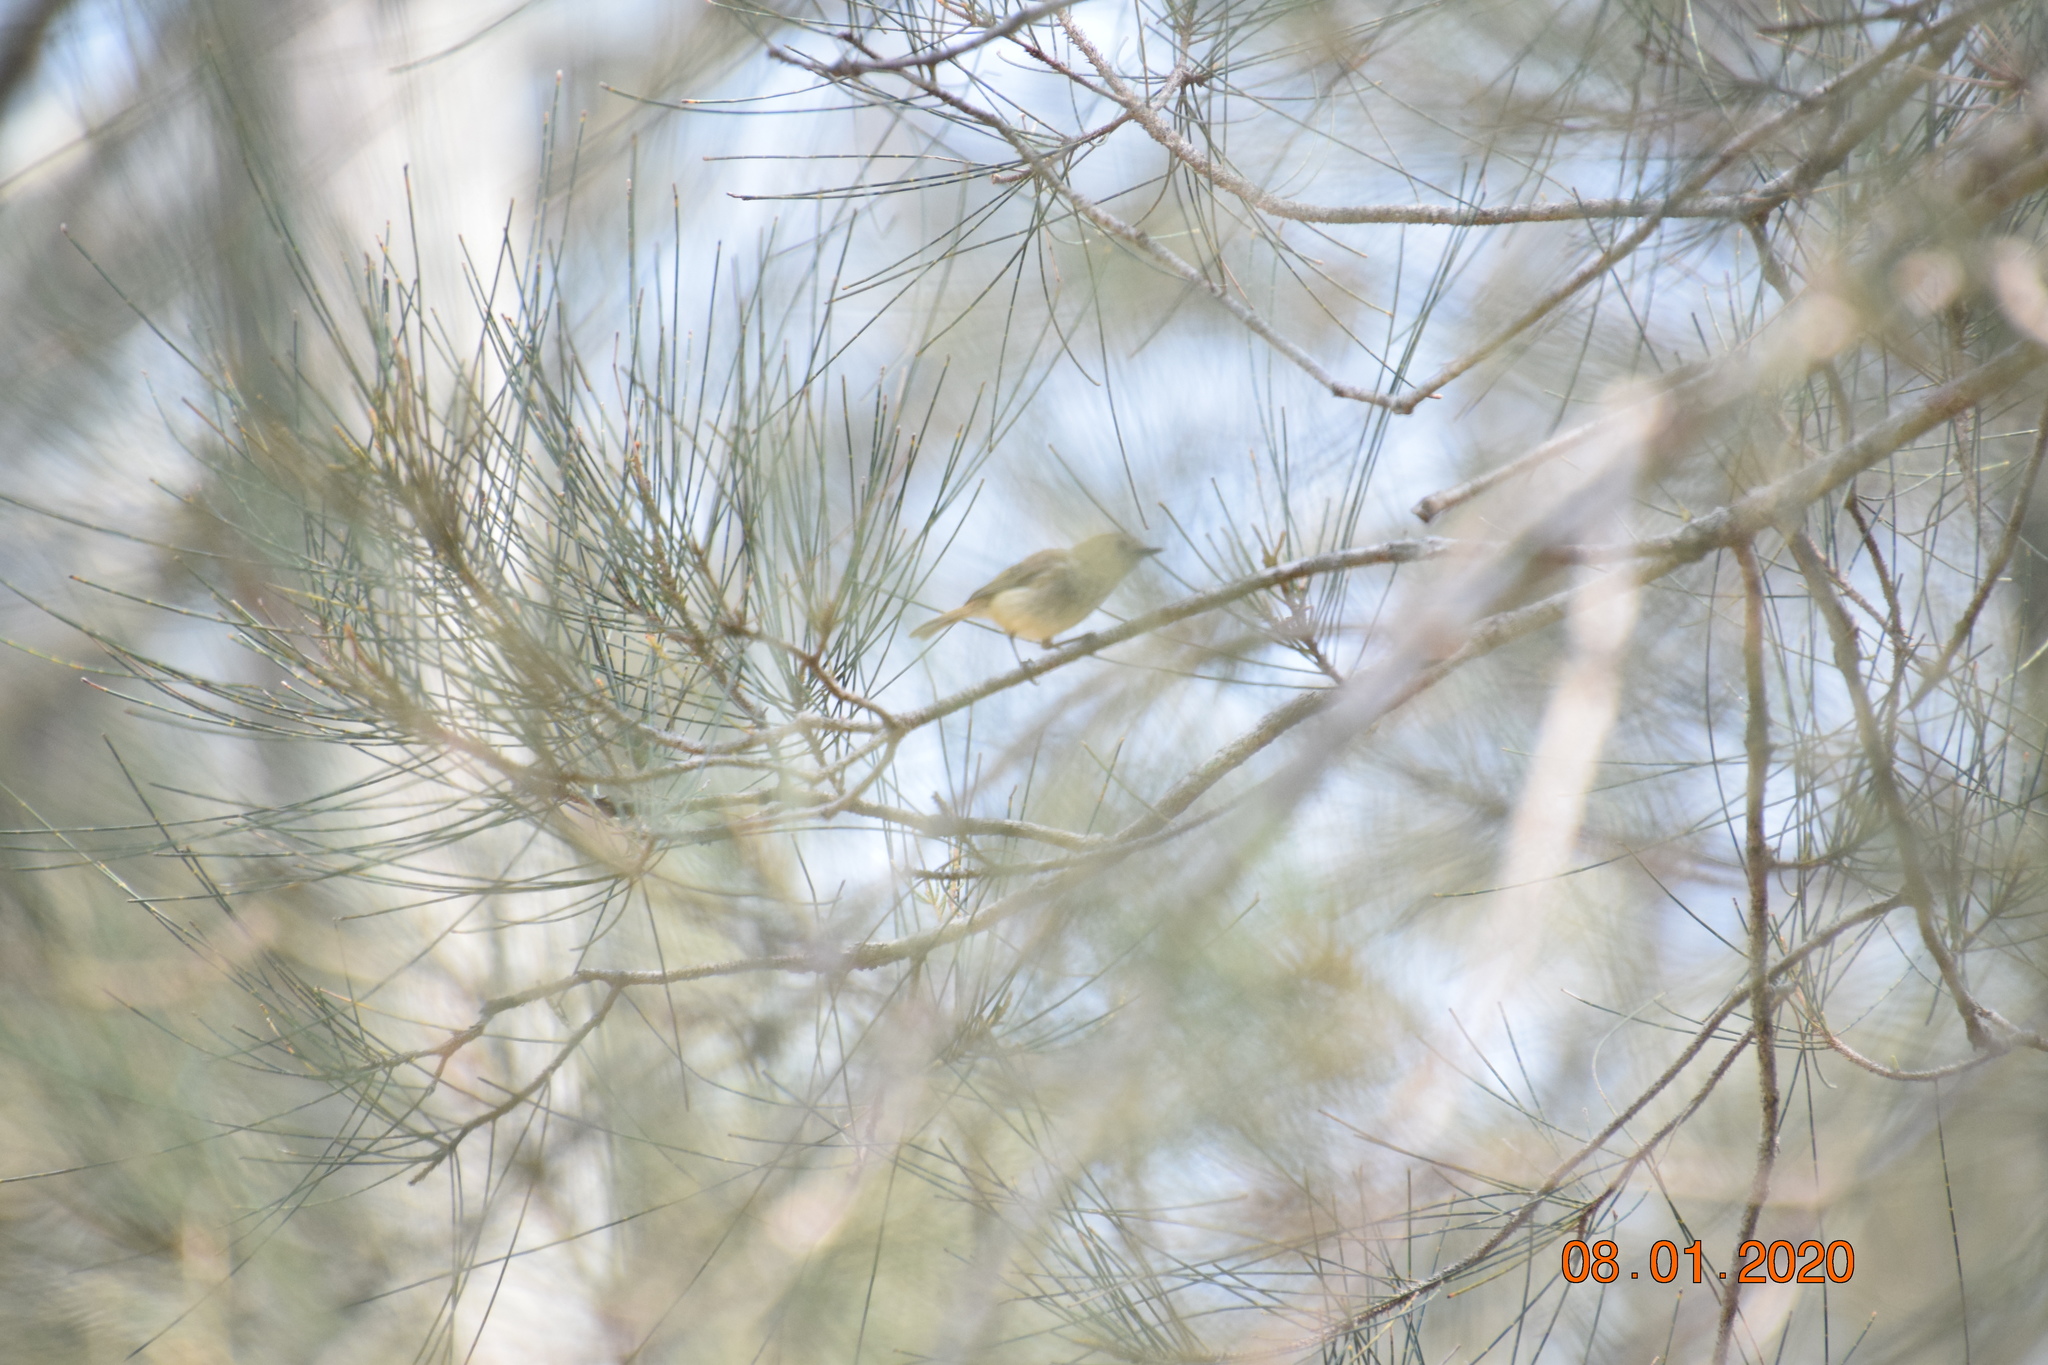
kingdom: Animalia
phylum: Chordata
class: Aves
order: Passeriformes
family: Acanthizidae
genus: Acanthiza
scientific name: Acanthiza pusilla
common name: Brown thornbill
